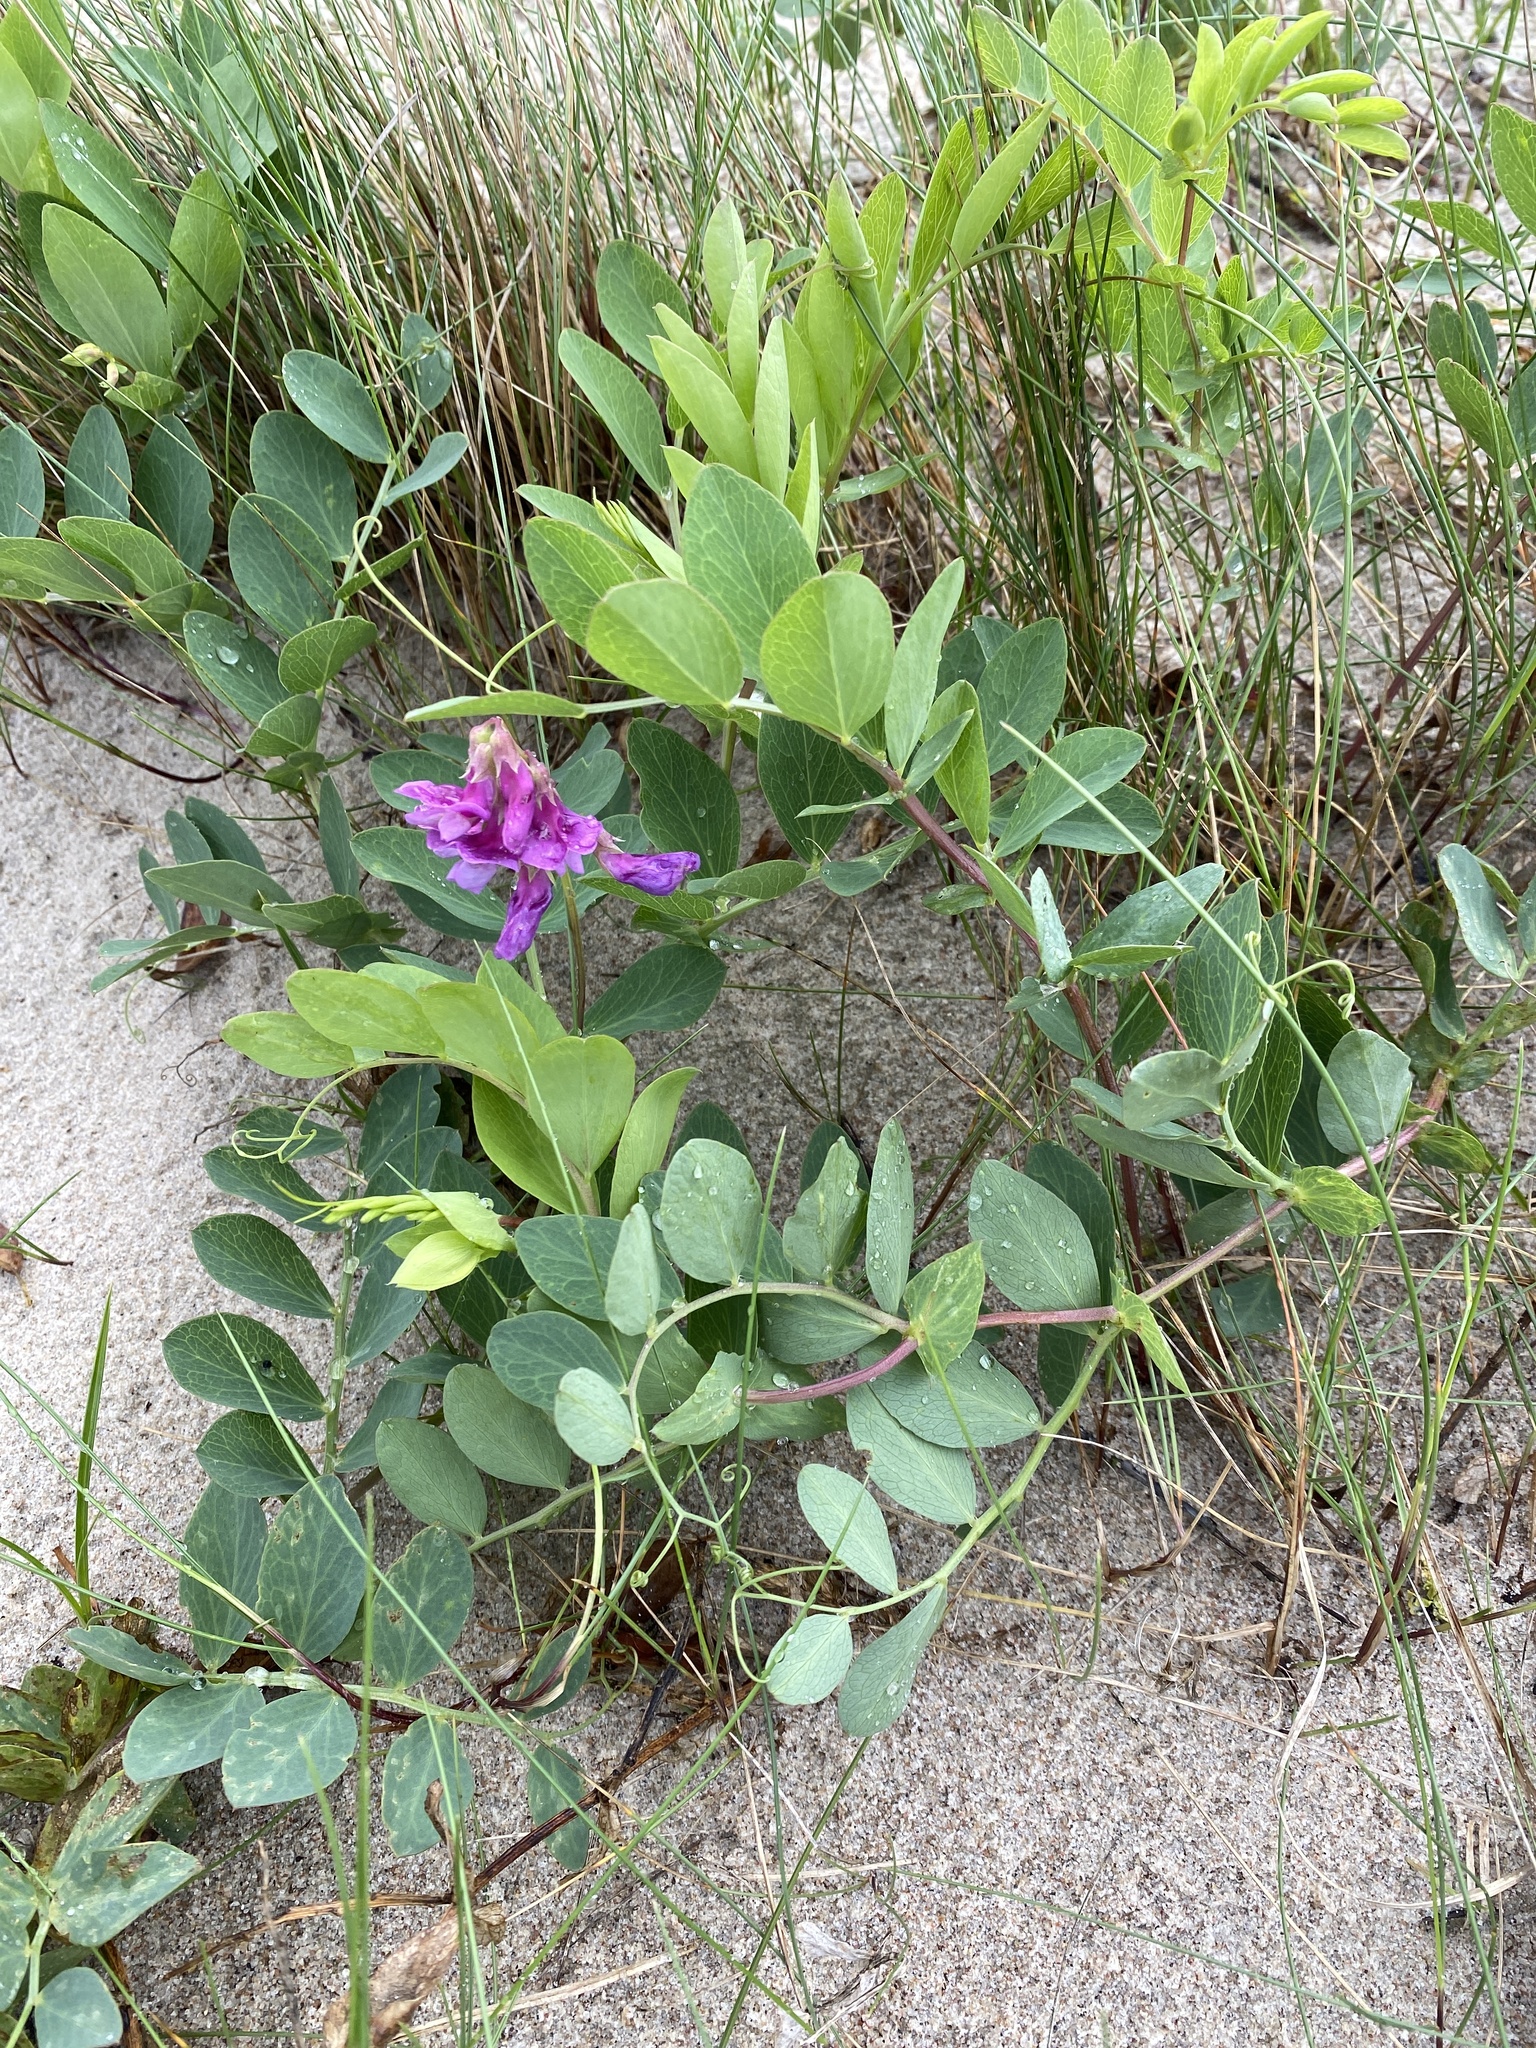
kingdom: Plantae
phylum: Tracheophyta
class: Magnoliopsida
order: Fabales
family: Fabaceae
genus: Lathyrus
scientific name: Lathyrus japonicus
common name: Sea pea
